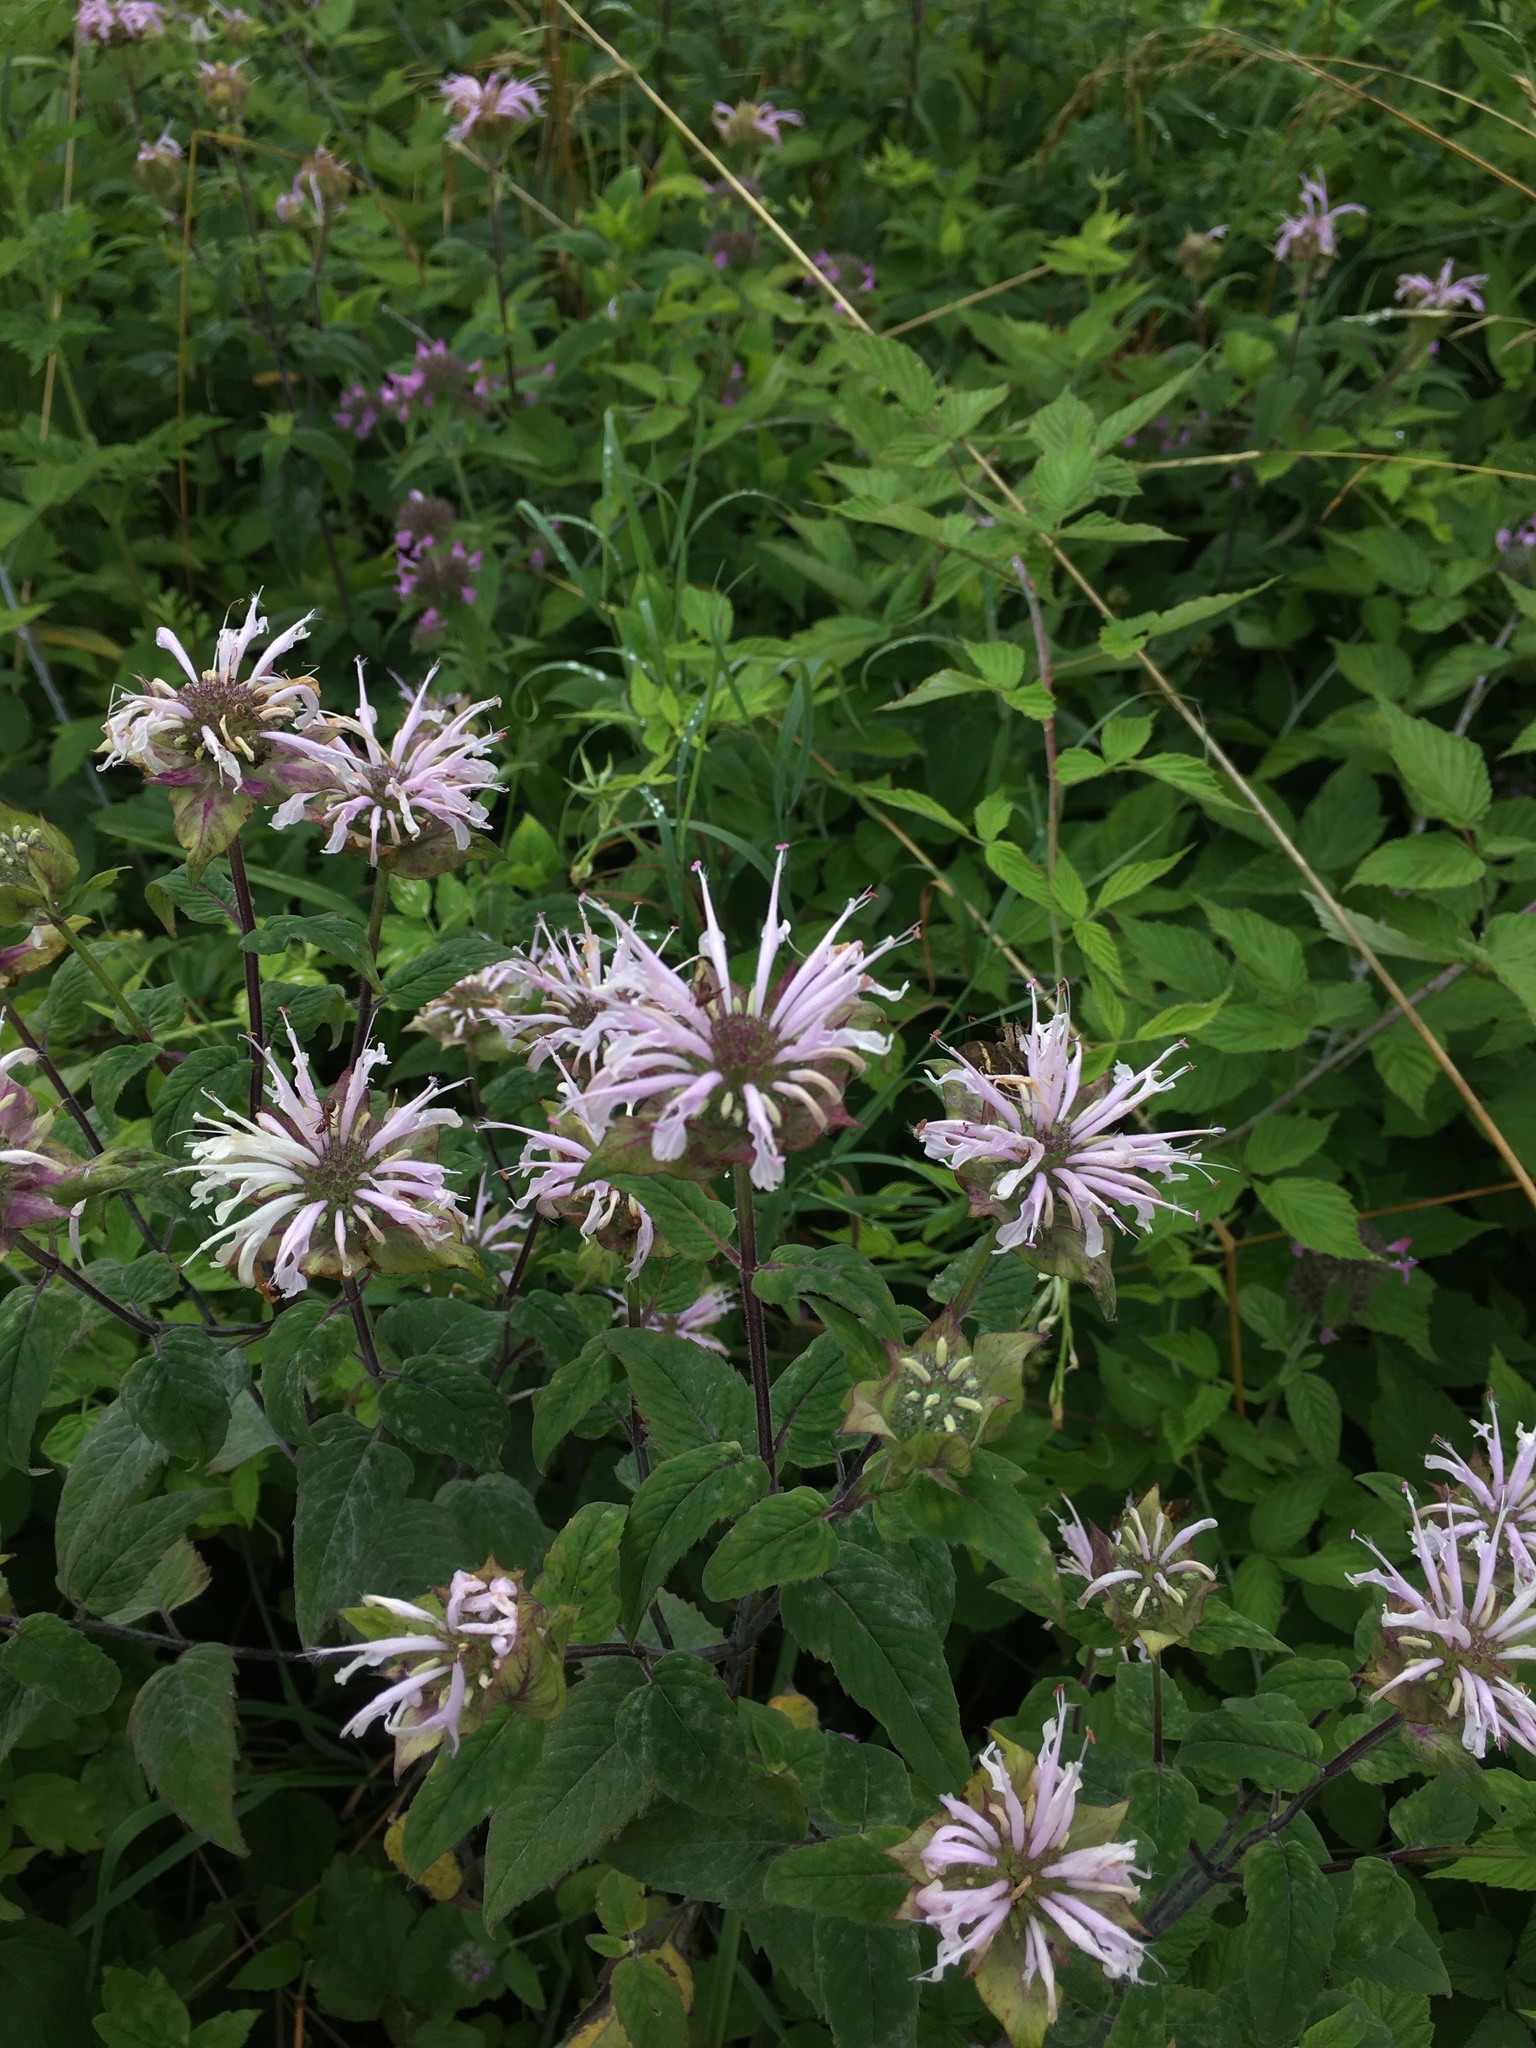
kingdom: Plantae
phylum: Tracheophyta
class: Magnoliopsida
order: Lamiales
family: Lamiaceae
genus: Monarda
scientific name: Monarda fistulosa
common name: Purple beebalm
